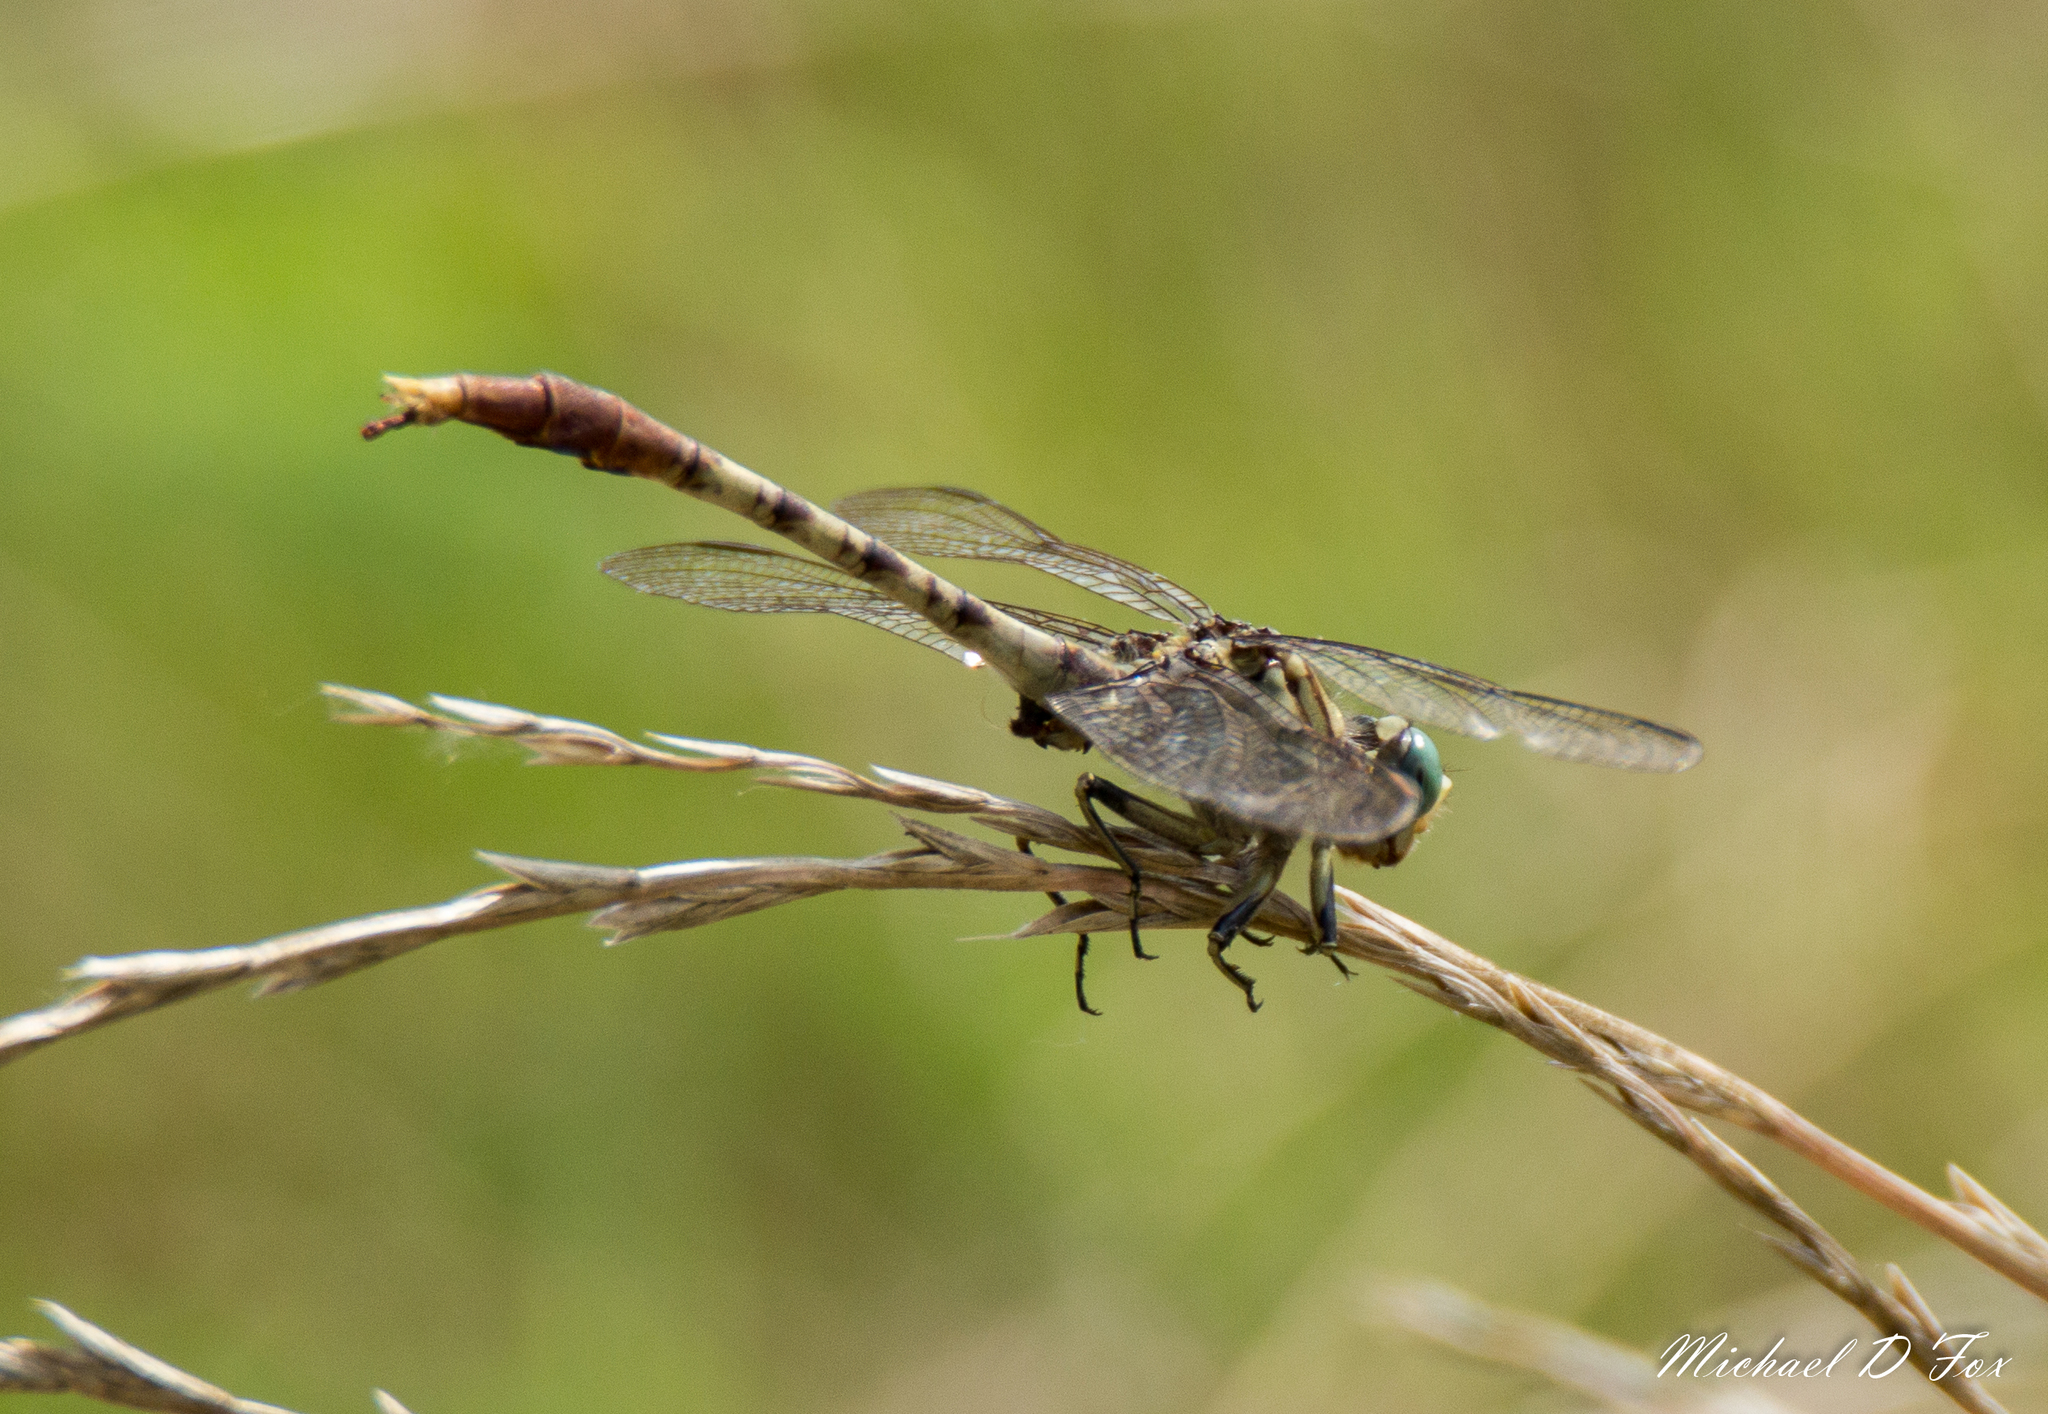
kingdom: Animalia
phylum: Arthropoda
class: Insecta
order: Odonata
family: Gomphidae
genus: Arigomphus
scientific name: Arigomphus submedianus
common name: Jade clubtail
